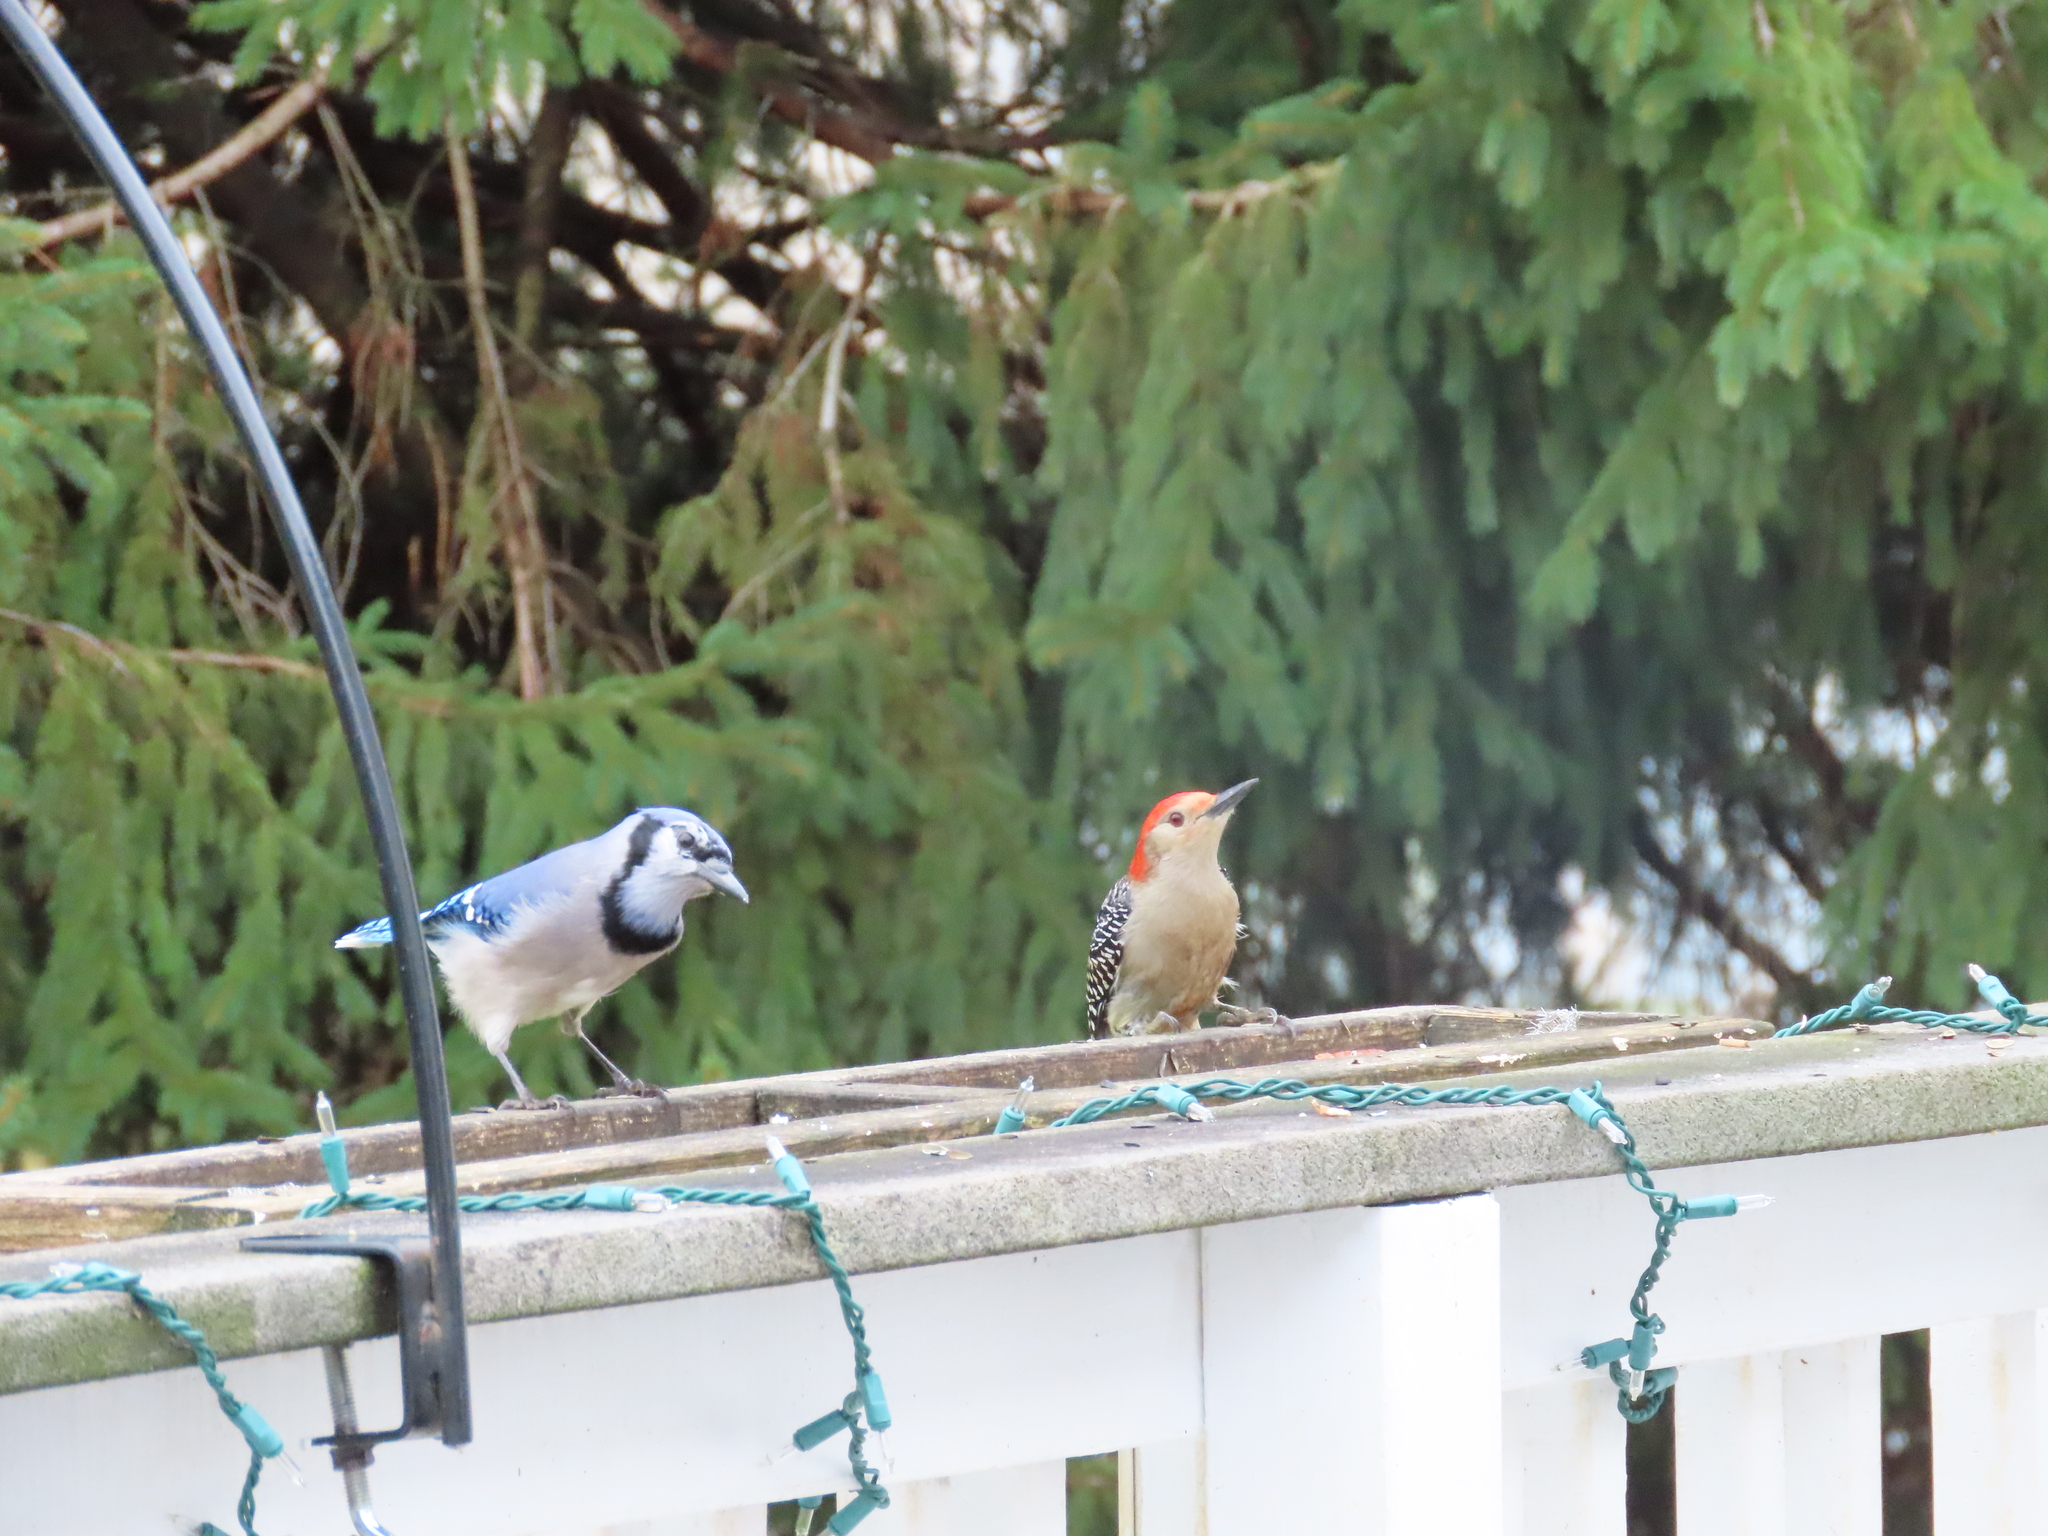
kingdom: Animalia
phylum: Chordata
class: Aves
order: Piciformes
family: Picidae
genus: Melanerpes
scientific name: Melanerpes carolinus
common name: Red-bellied woodpecker
